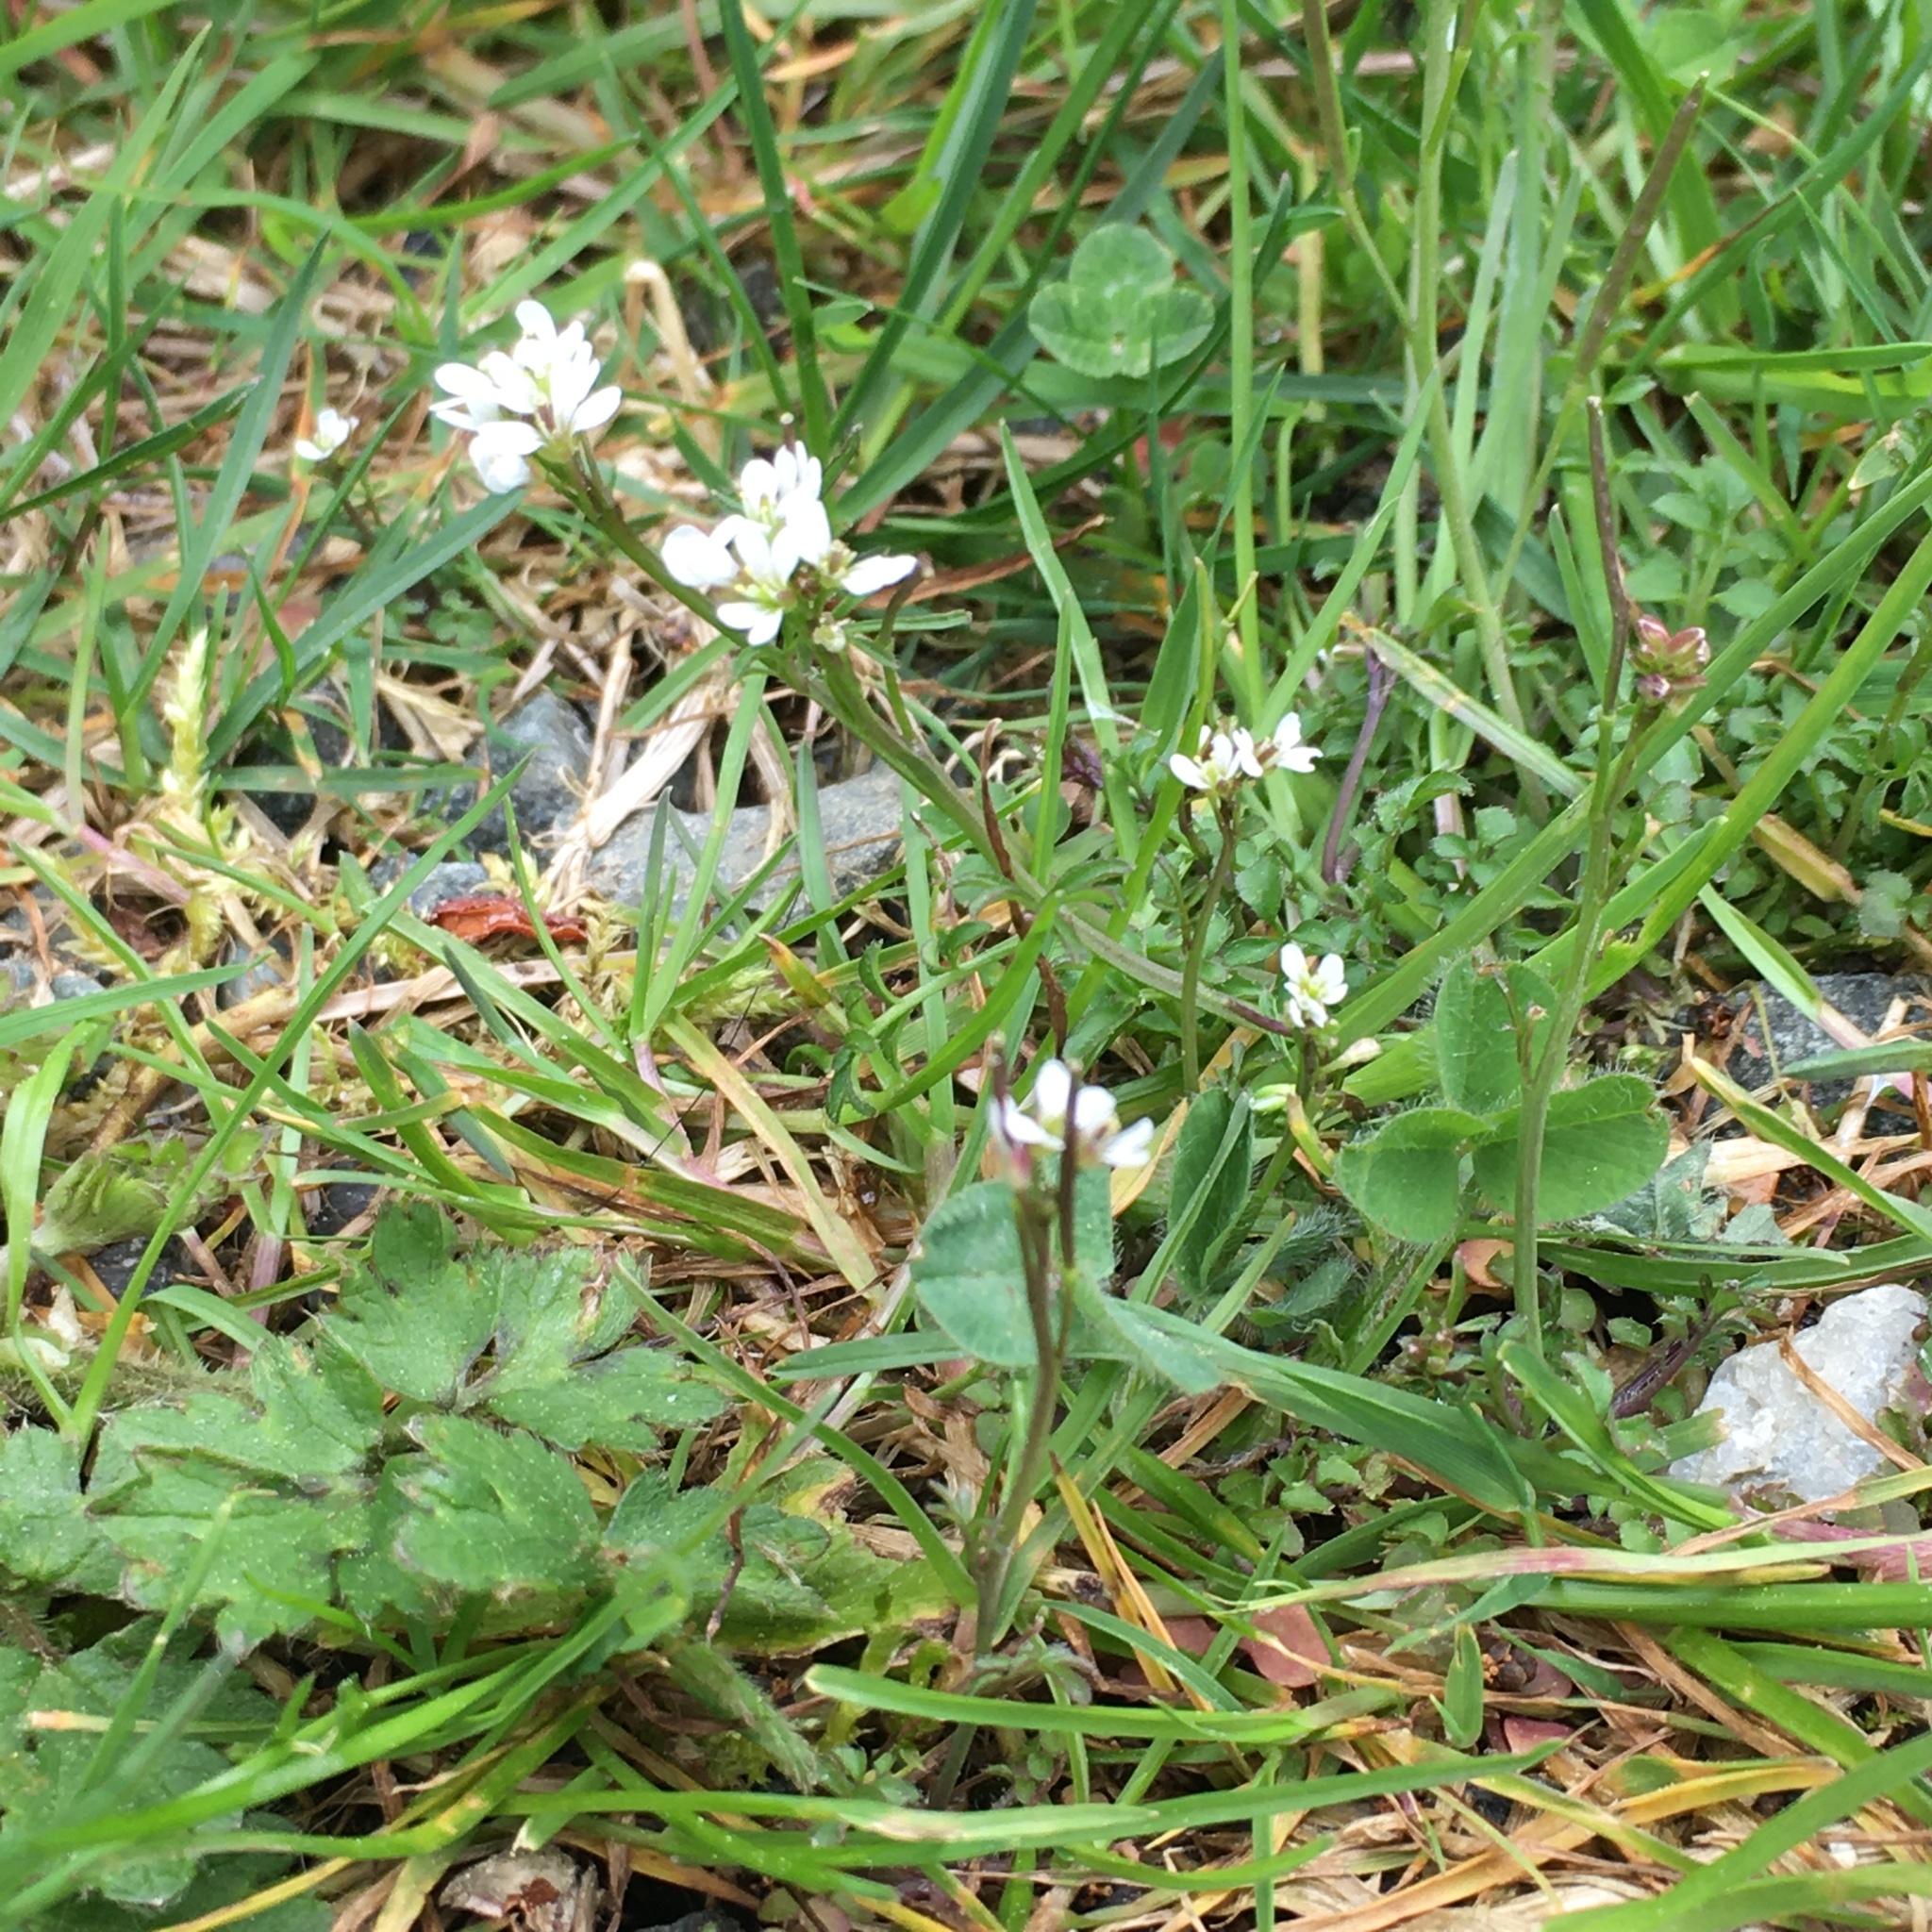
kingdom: Plantae
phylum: Tracheophyta
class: Magnoliopsida
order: Brassicales
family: Brassicaceae
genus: Cardamine
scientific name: Cardamine hirsuta
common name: Hairy bittercress
